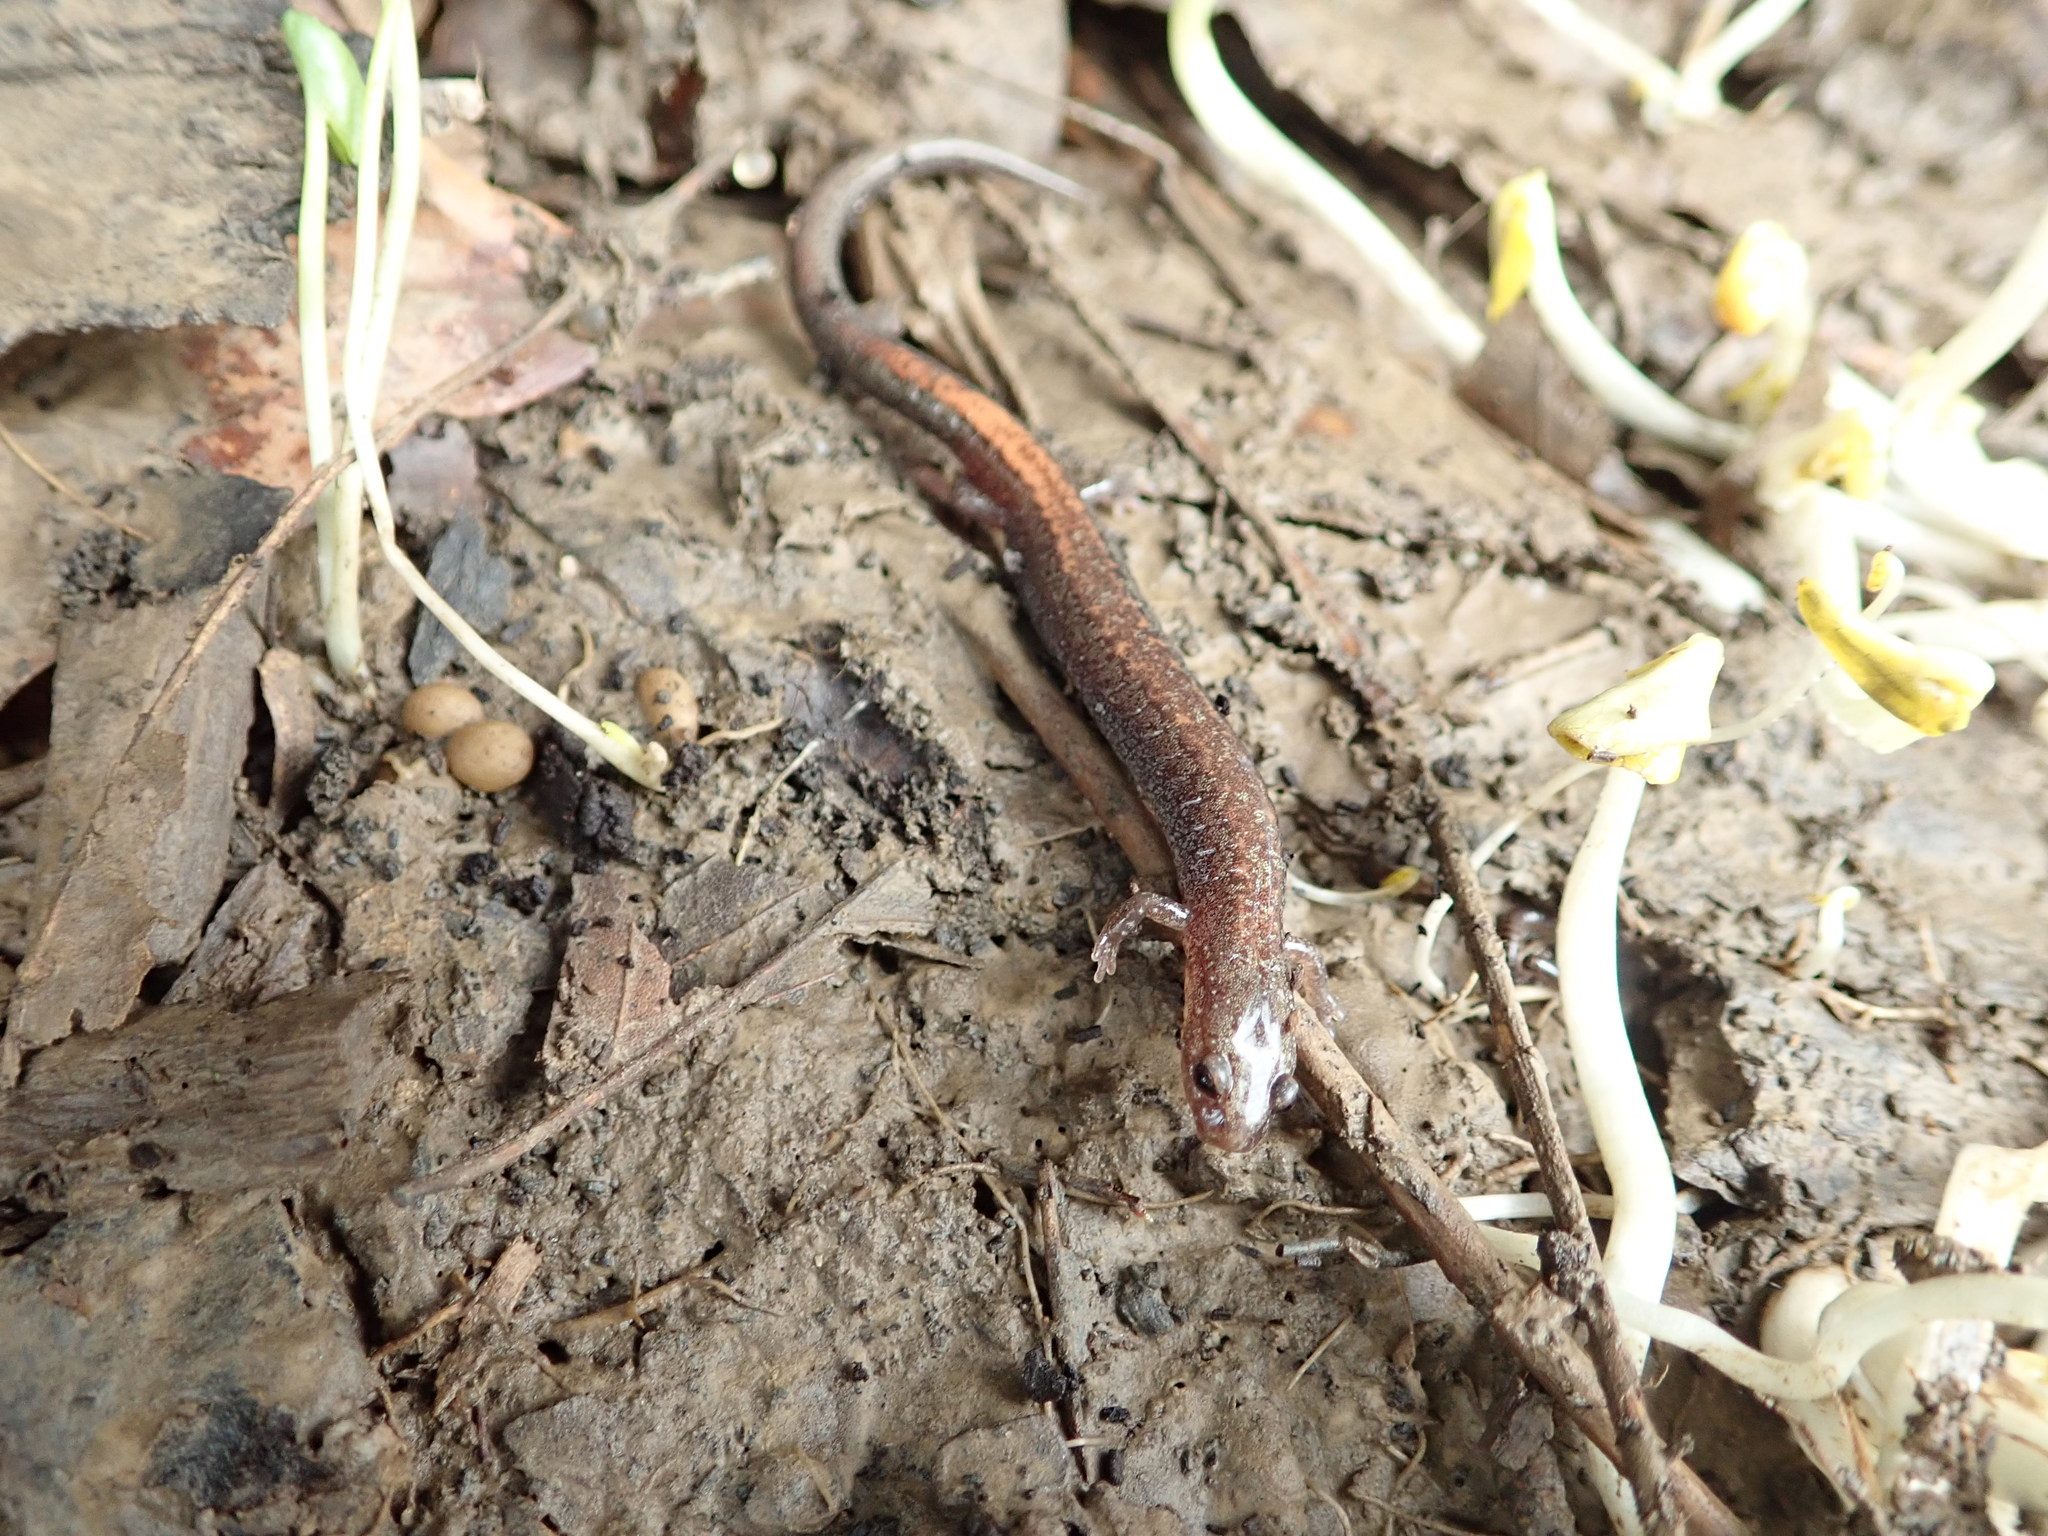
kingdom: Animalia
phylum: Chordata
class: Amphibia
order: Caudata
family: Plethodontidae
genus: Plethodon
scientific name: Plethodon cinereus
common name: Redback salamander
